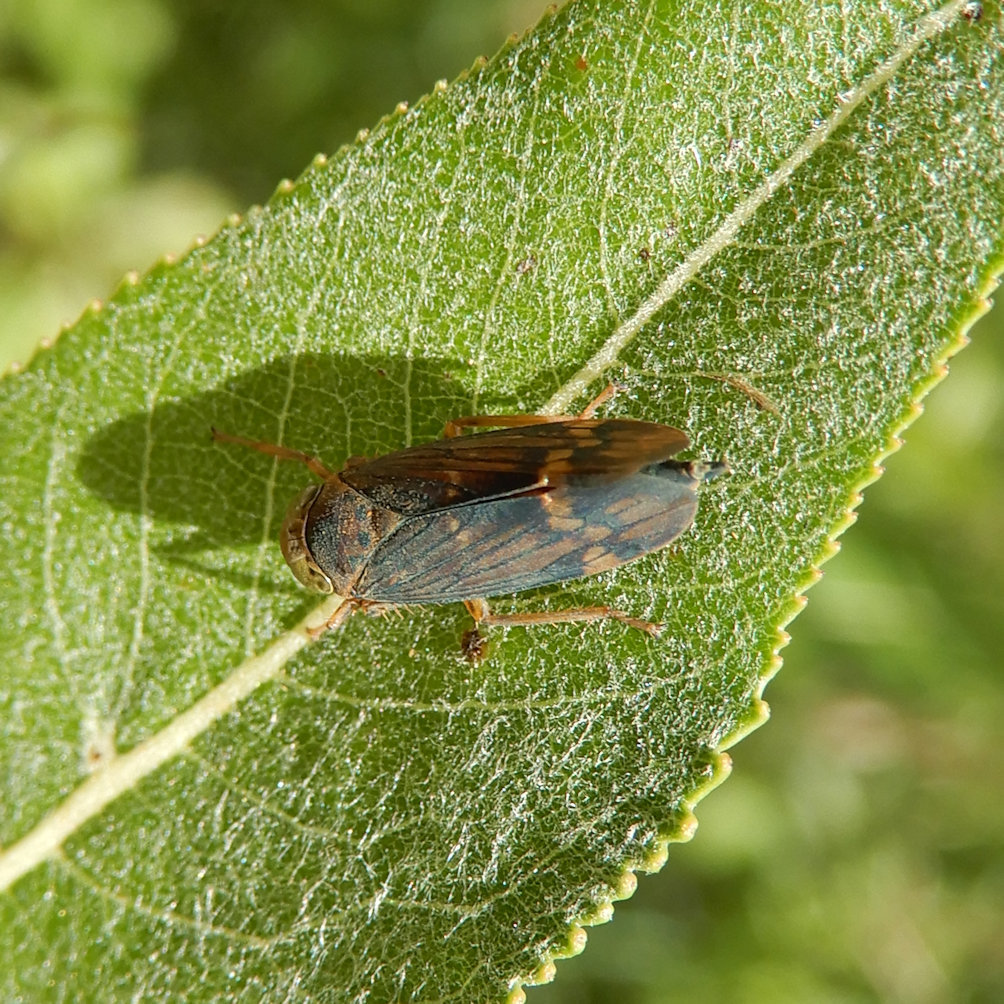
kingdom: Animalia
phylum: Arthropoda
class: Insecta
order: Hemiptera
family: Cicadellidae
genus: Jikradia
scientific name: Jikradia olitoria
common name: Coppery leafhopper
